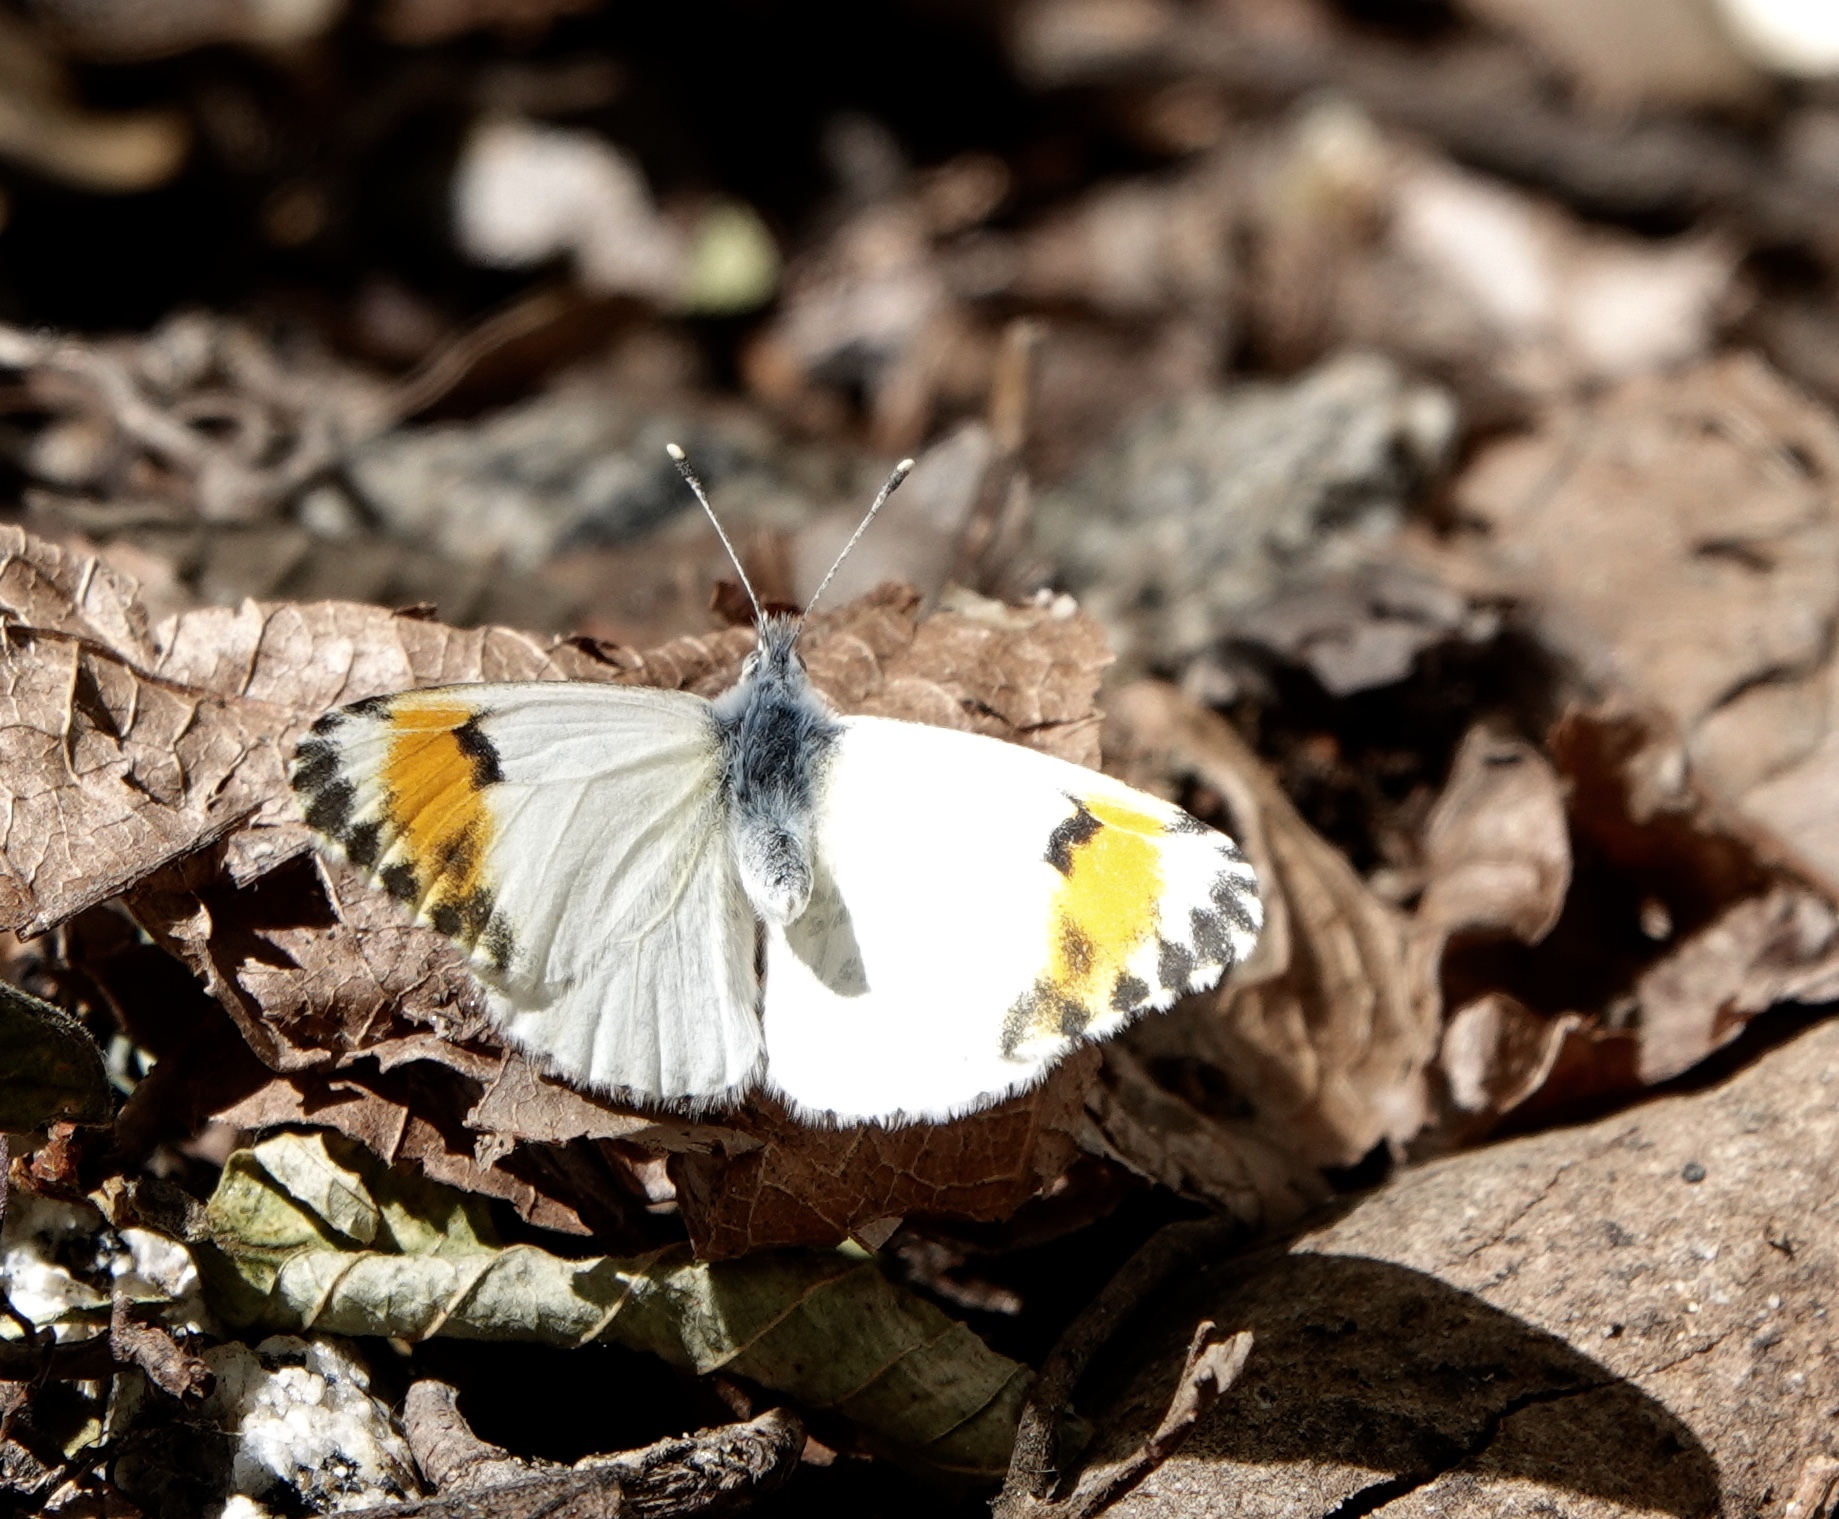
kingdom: Animalia
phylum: Arthropoda
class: Insecta
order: Lepidoptera
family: Pieridae
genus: Anthocharis
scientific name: Anthocharis sara
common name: Sara's orangetip
